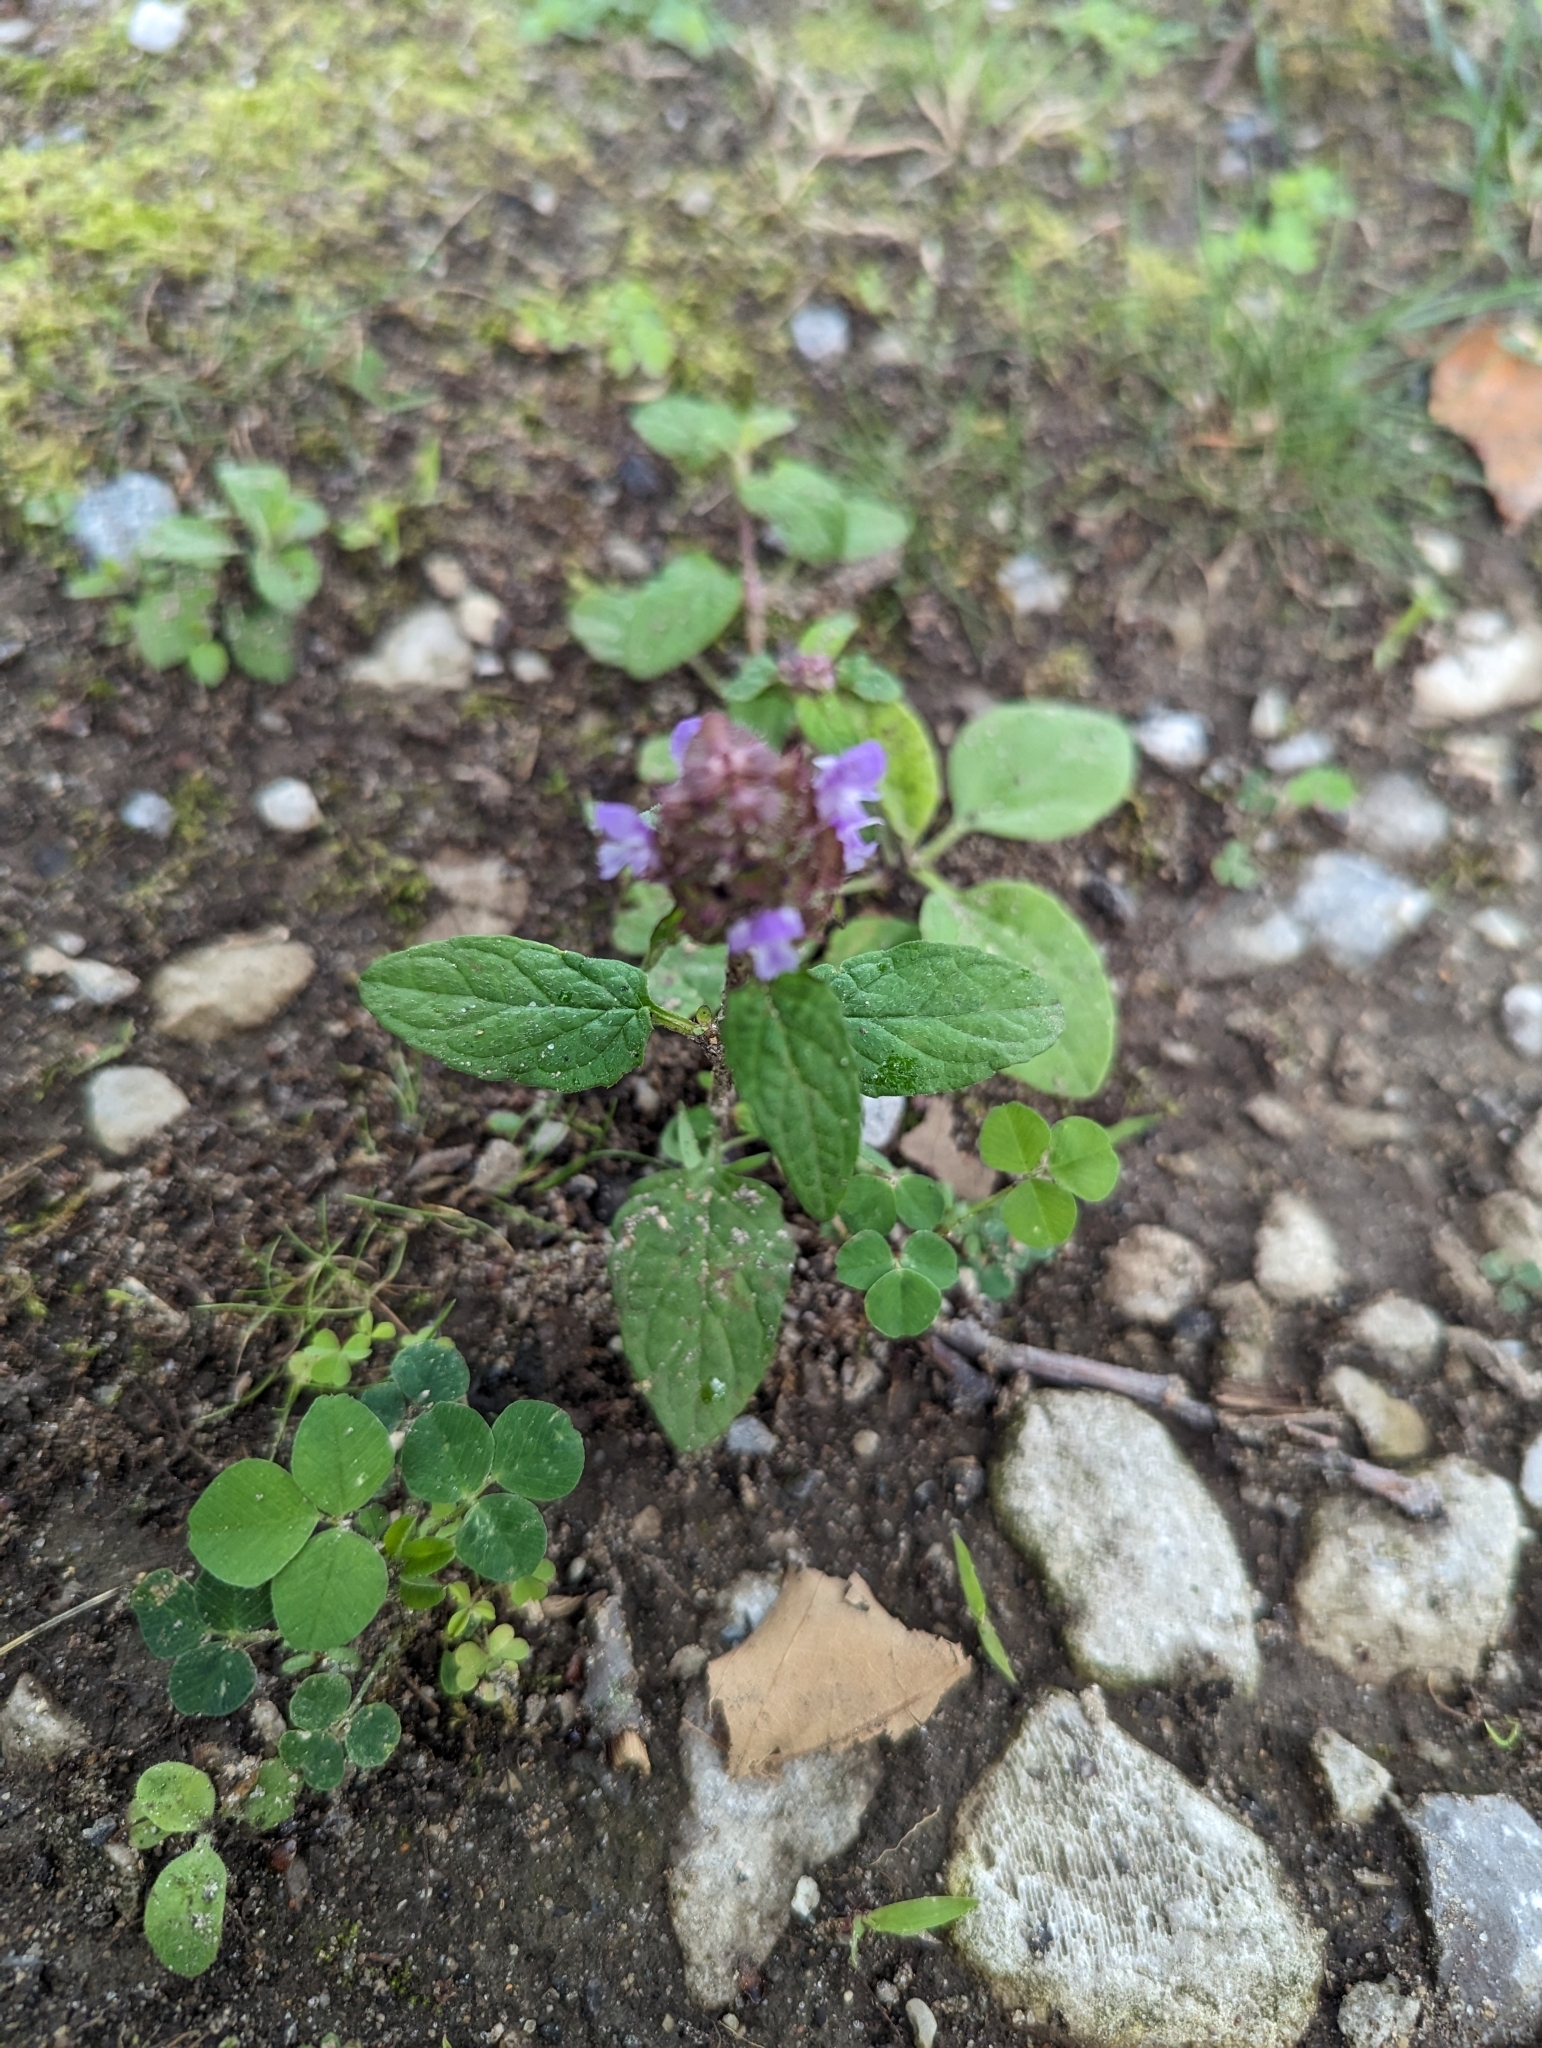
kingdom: Plantae
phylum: Tracheophyta
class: Magnoliopsida
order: Lamiales
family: Lamiaceae
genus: Prunella
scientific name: Prunella vulgaris
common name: Heal-all
